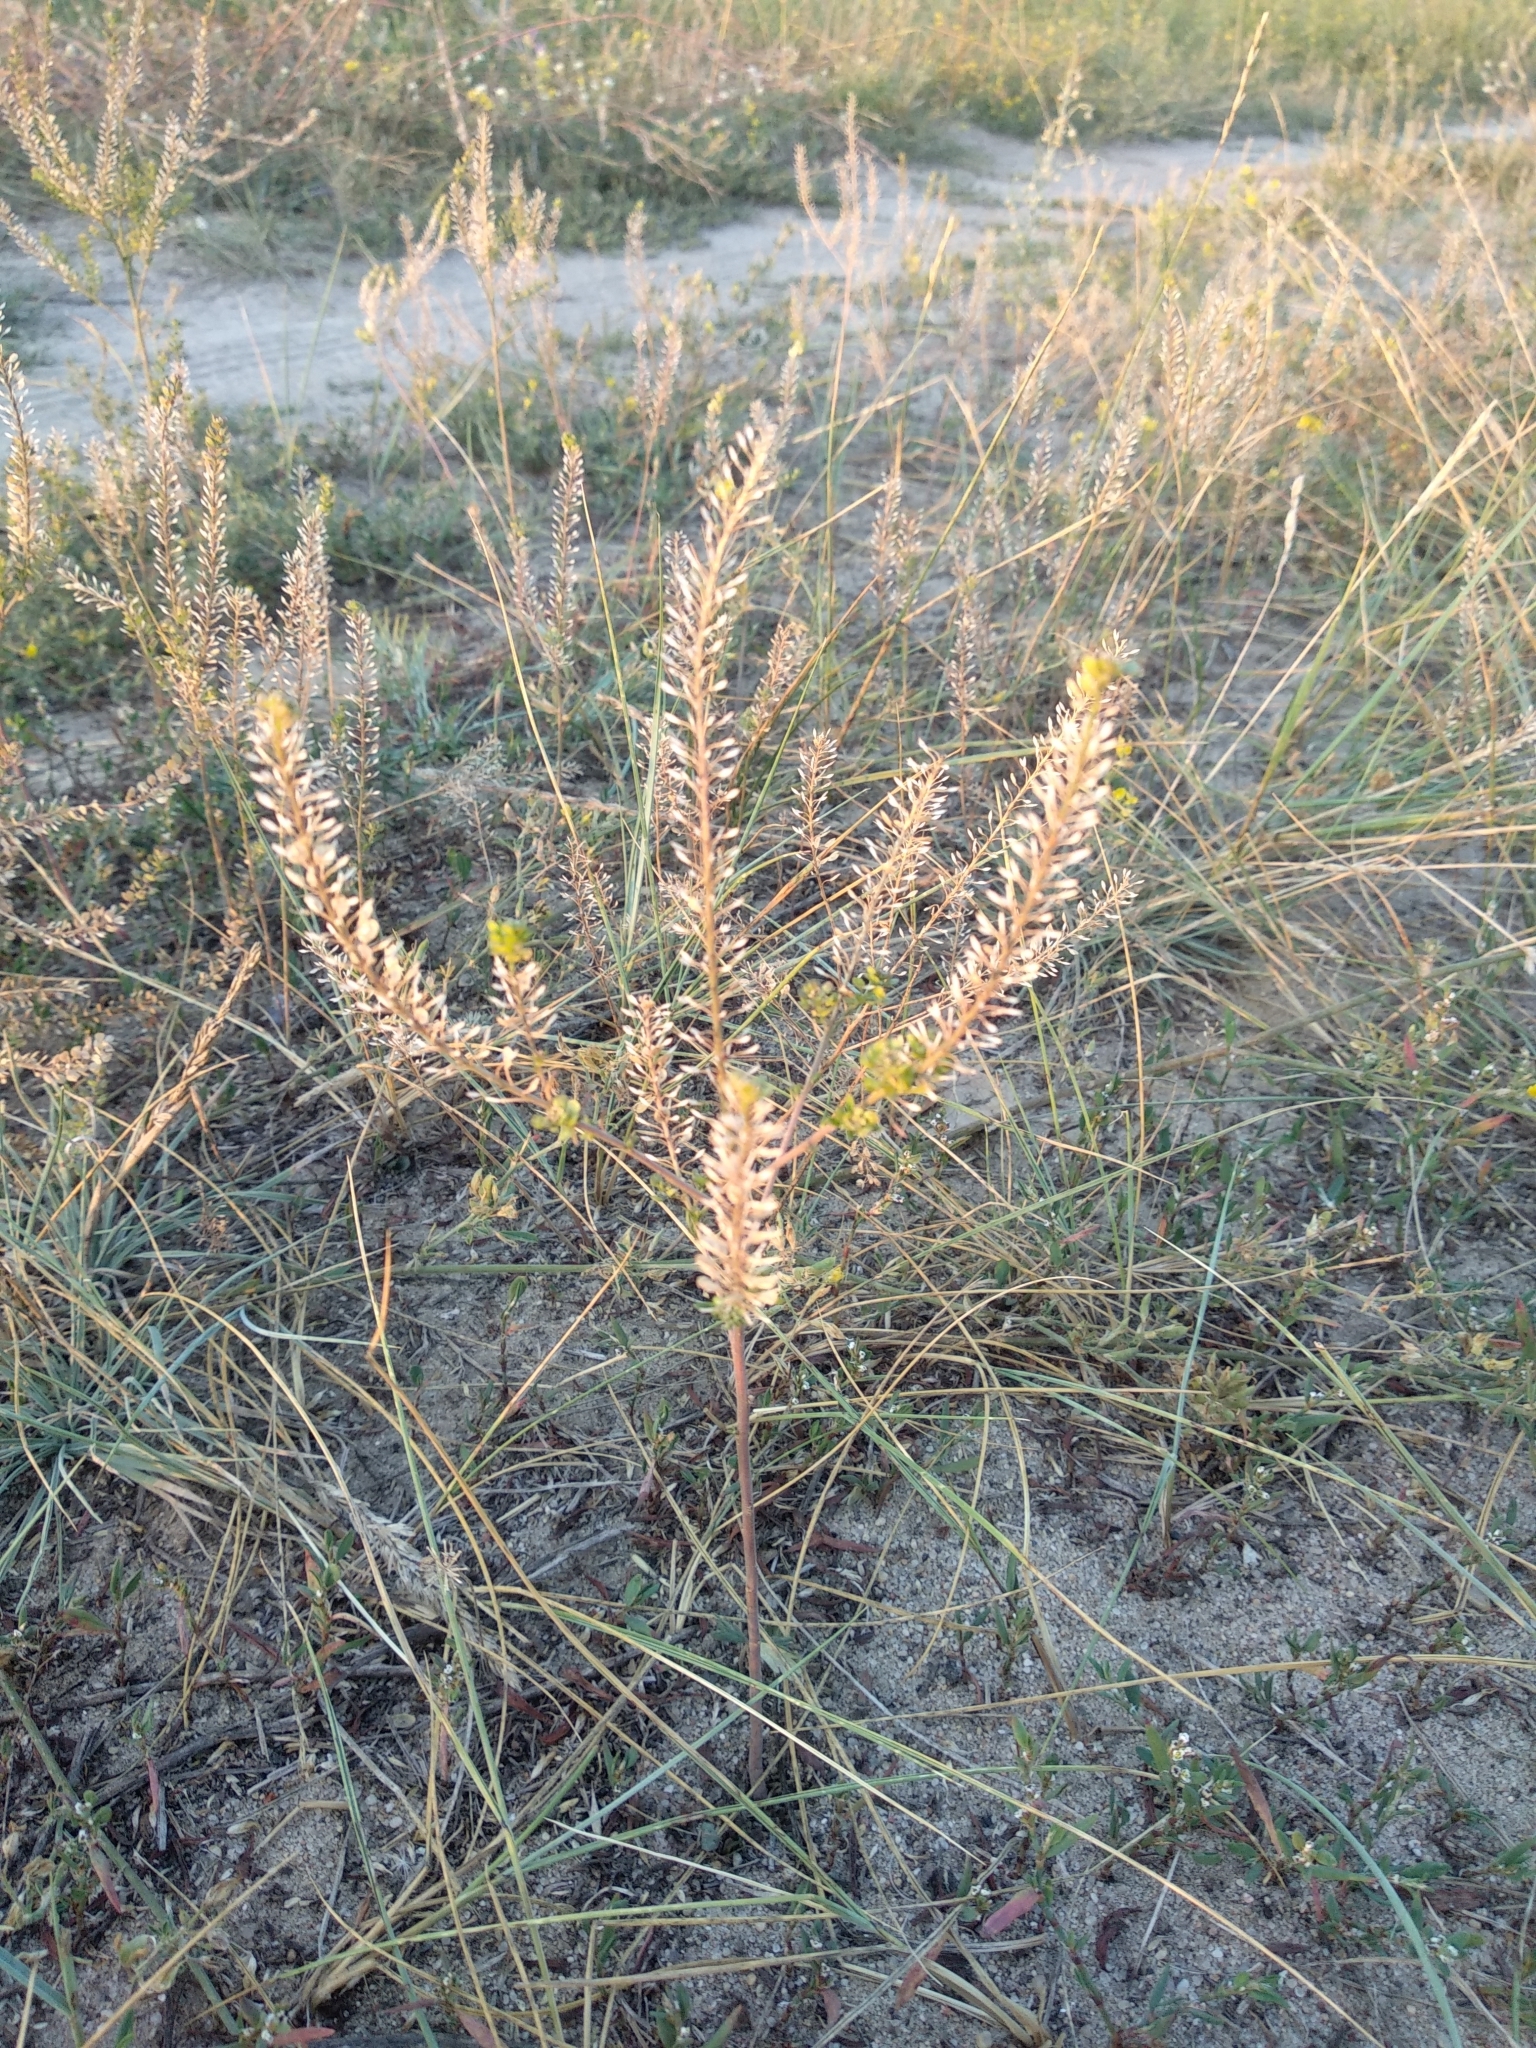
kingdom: Plantae
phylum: Tracheophyta
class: Magnoliopsida
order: Brassicales
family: Brassicaceae
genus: Lepidium
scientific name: Lepidium densiflorum
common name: Miner's pepperwort
